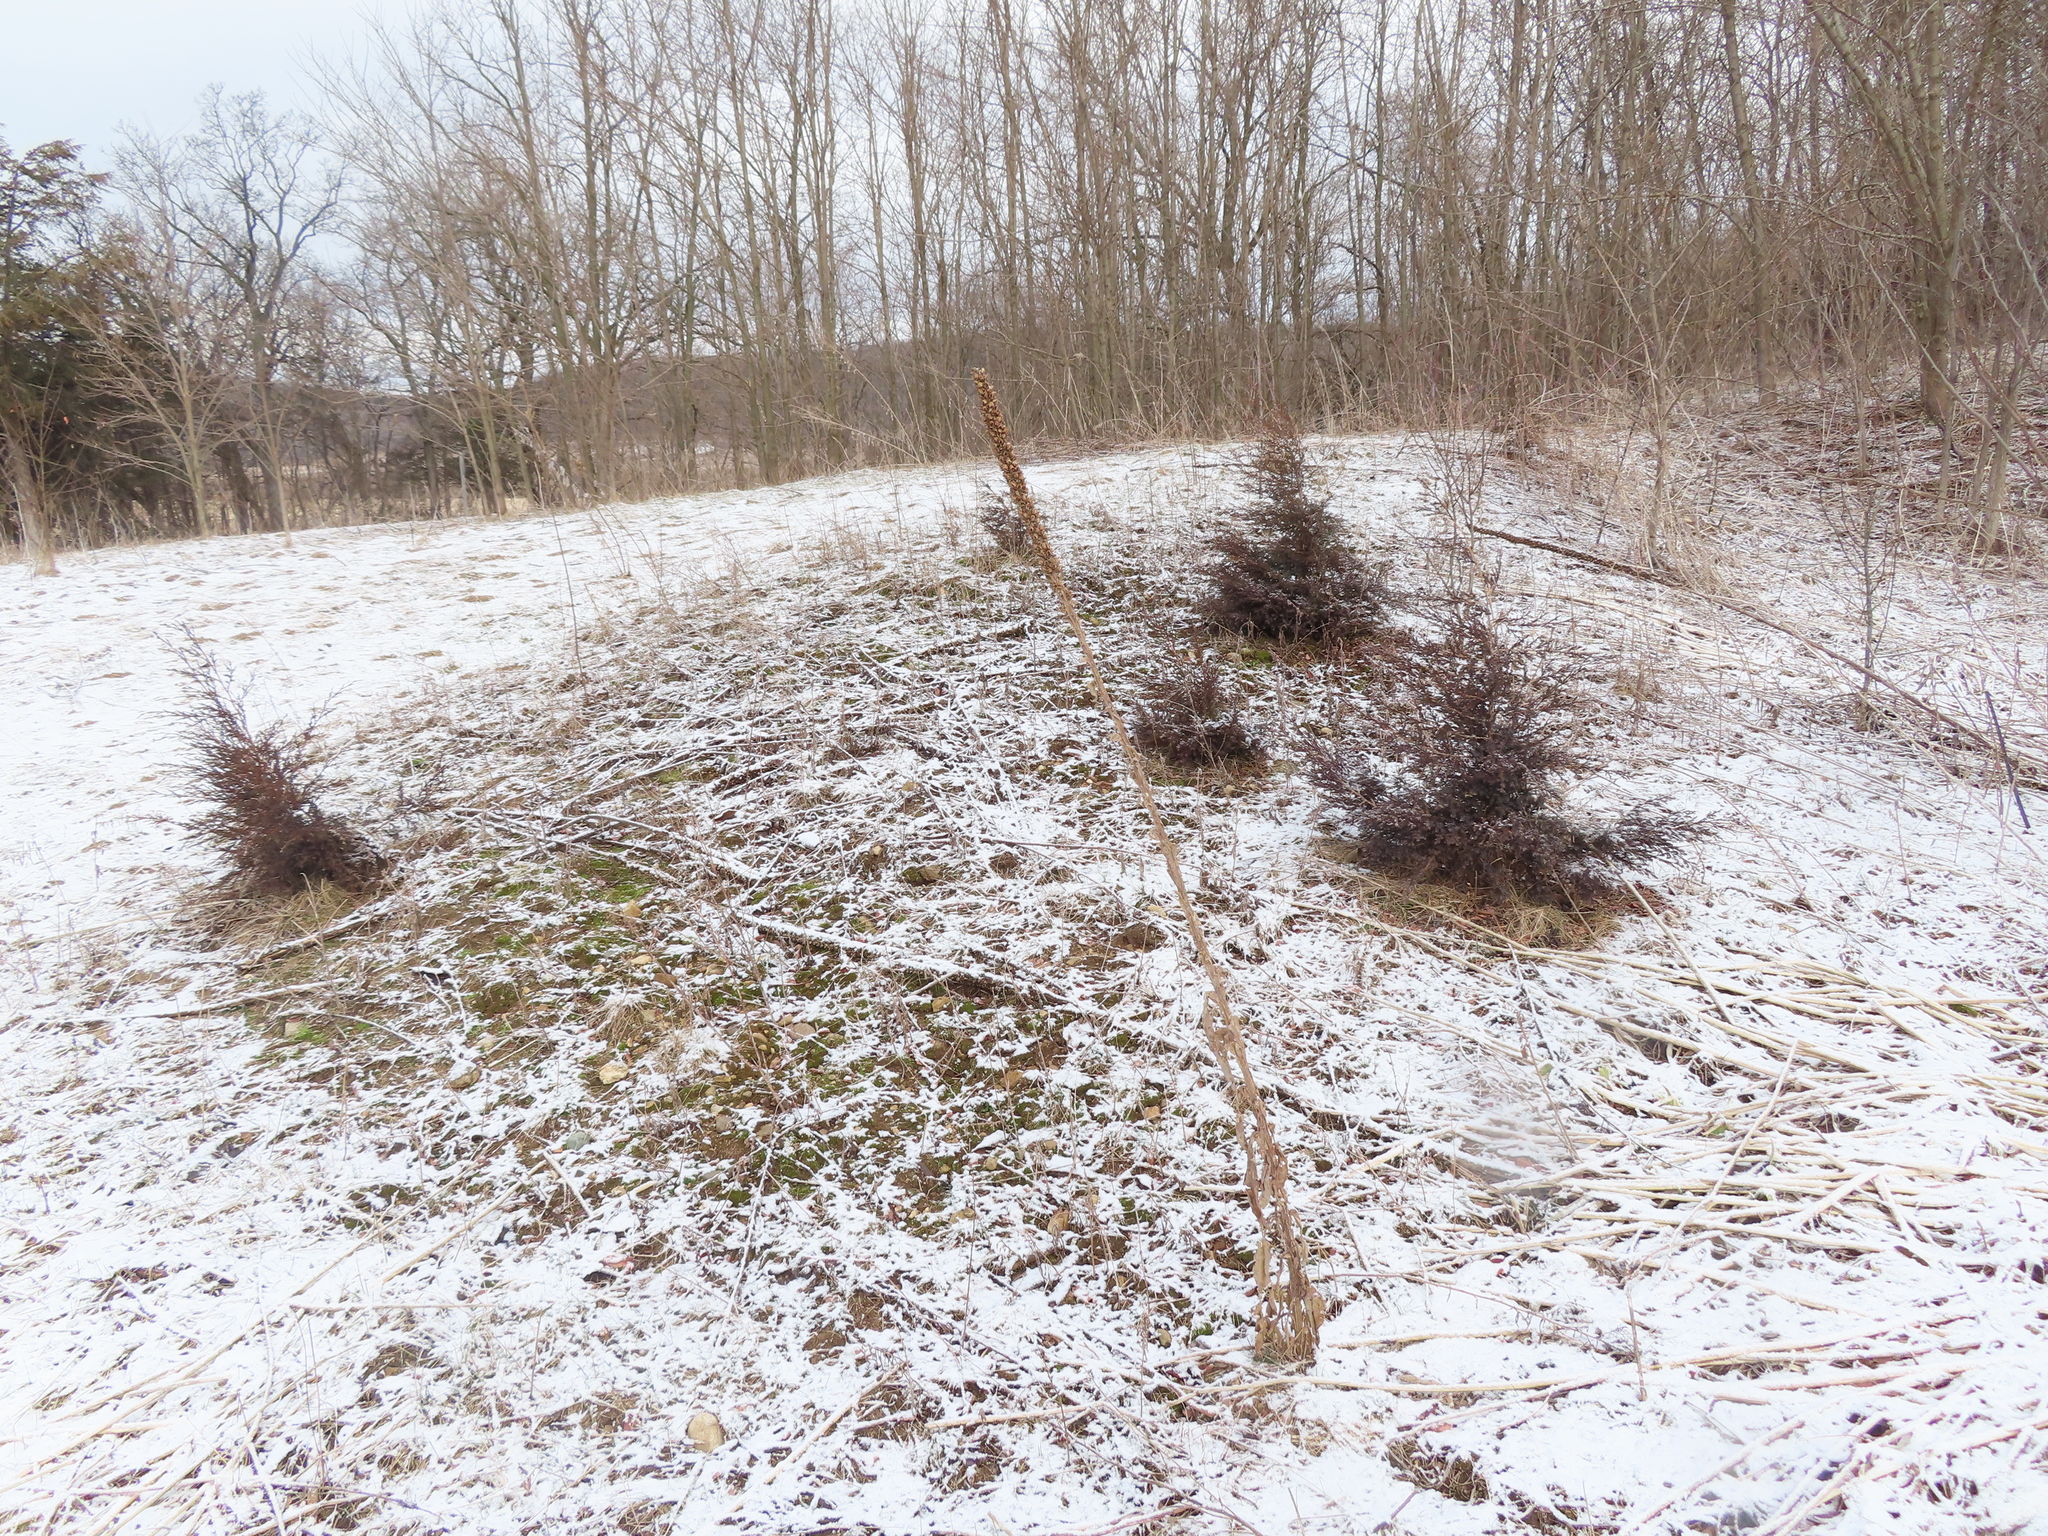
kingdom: Plantae
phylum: Tracheophyta
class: Pinopsida
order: Pinales
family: Cupressaceae
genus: Juniperus
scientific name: Juniperus virginiana
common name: Red juniper
